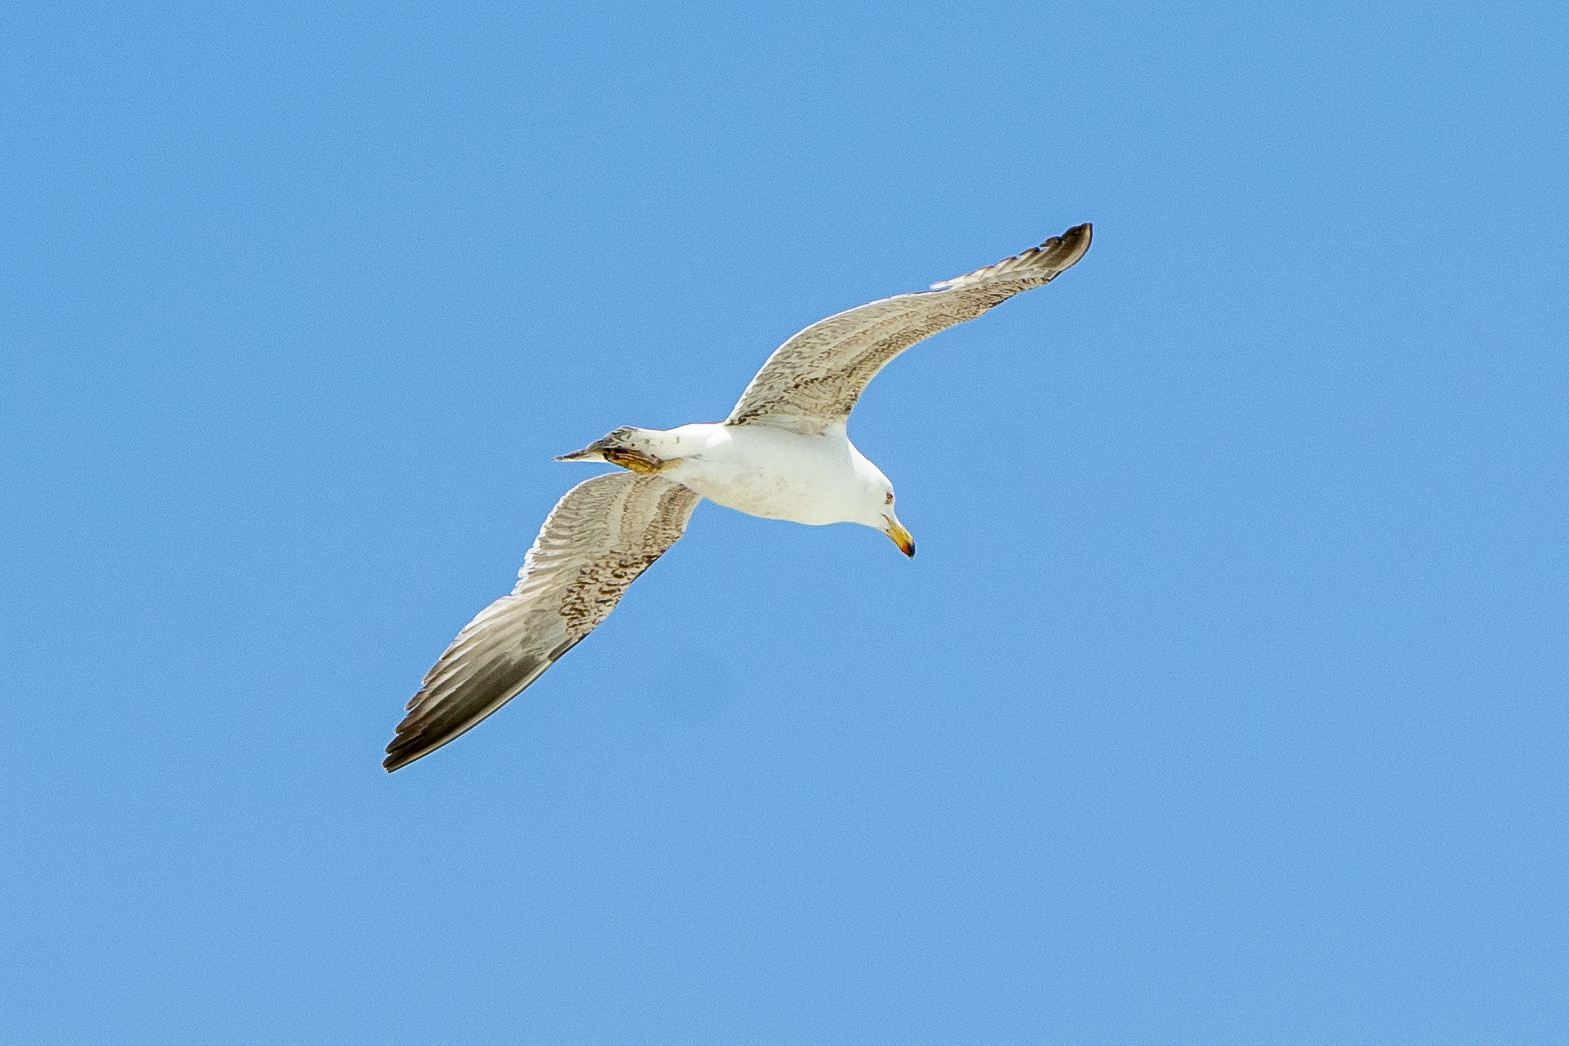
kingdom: Animalia
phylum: Chordata
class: Aves
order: Charadriiformes
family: Laridae
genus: Larus
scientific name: Larus michahellis
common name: Yellow-legged gull
